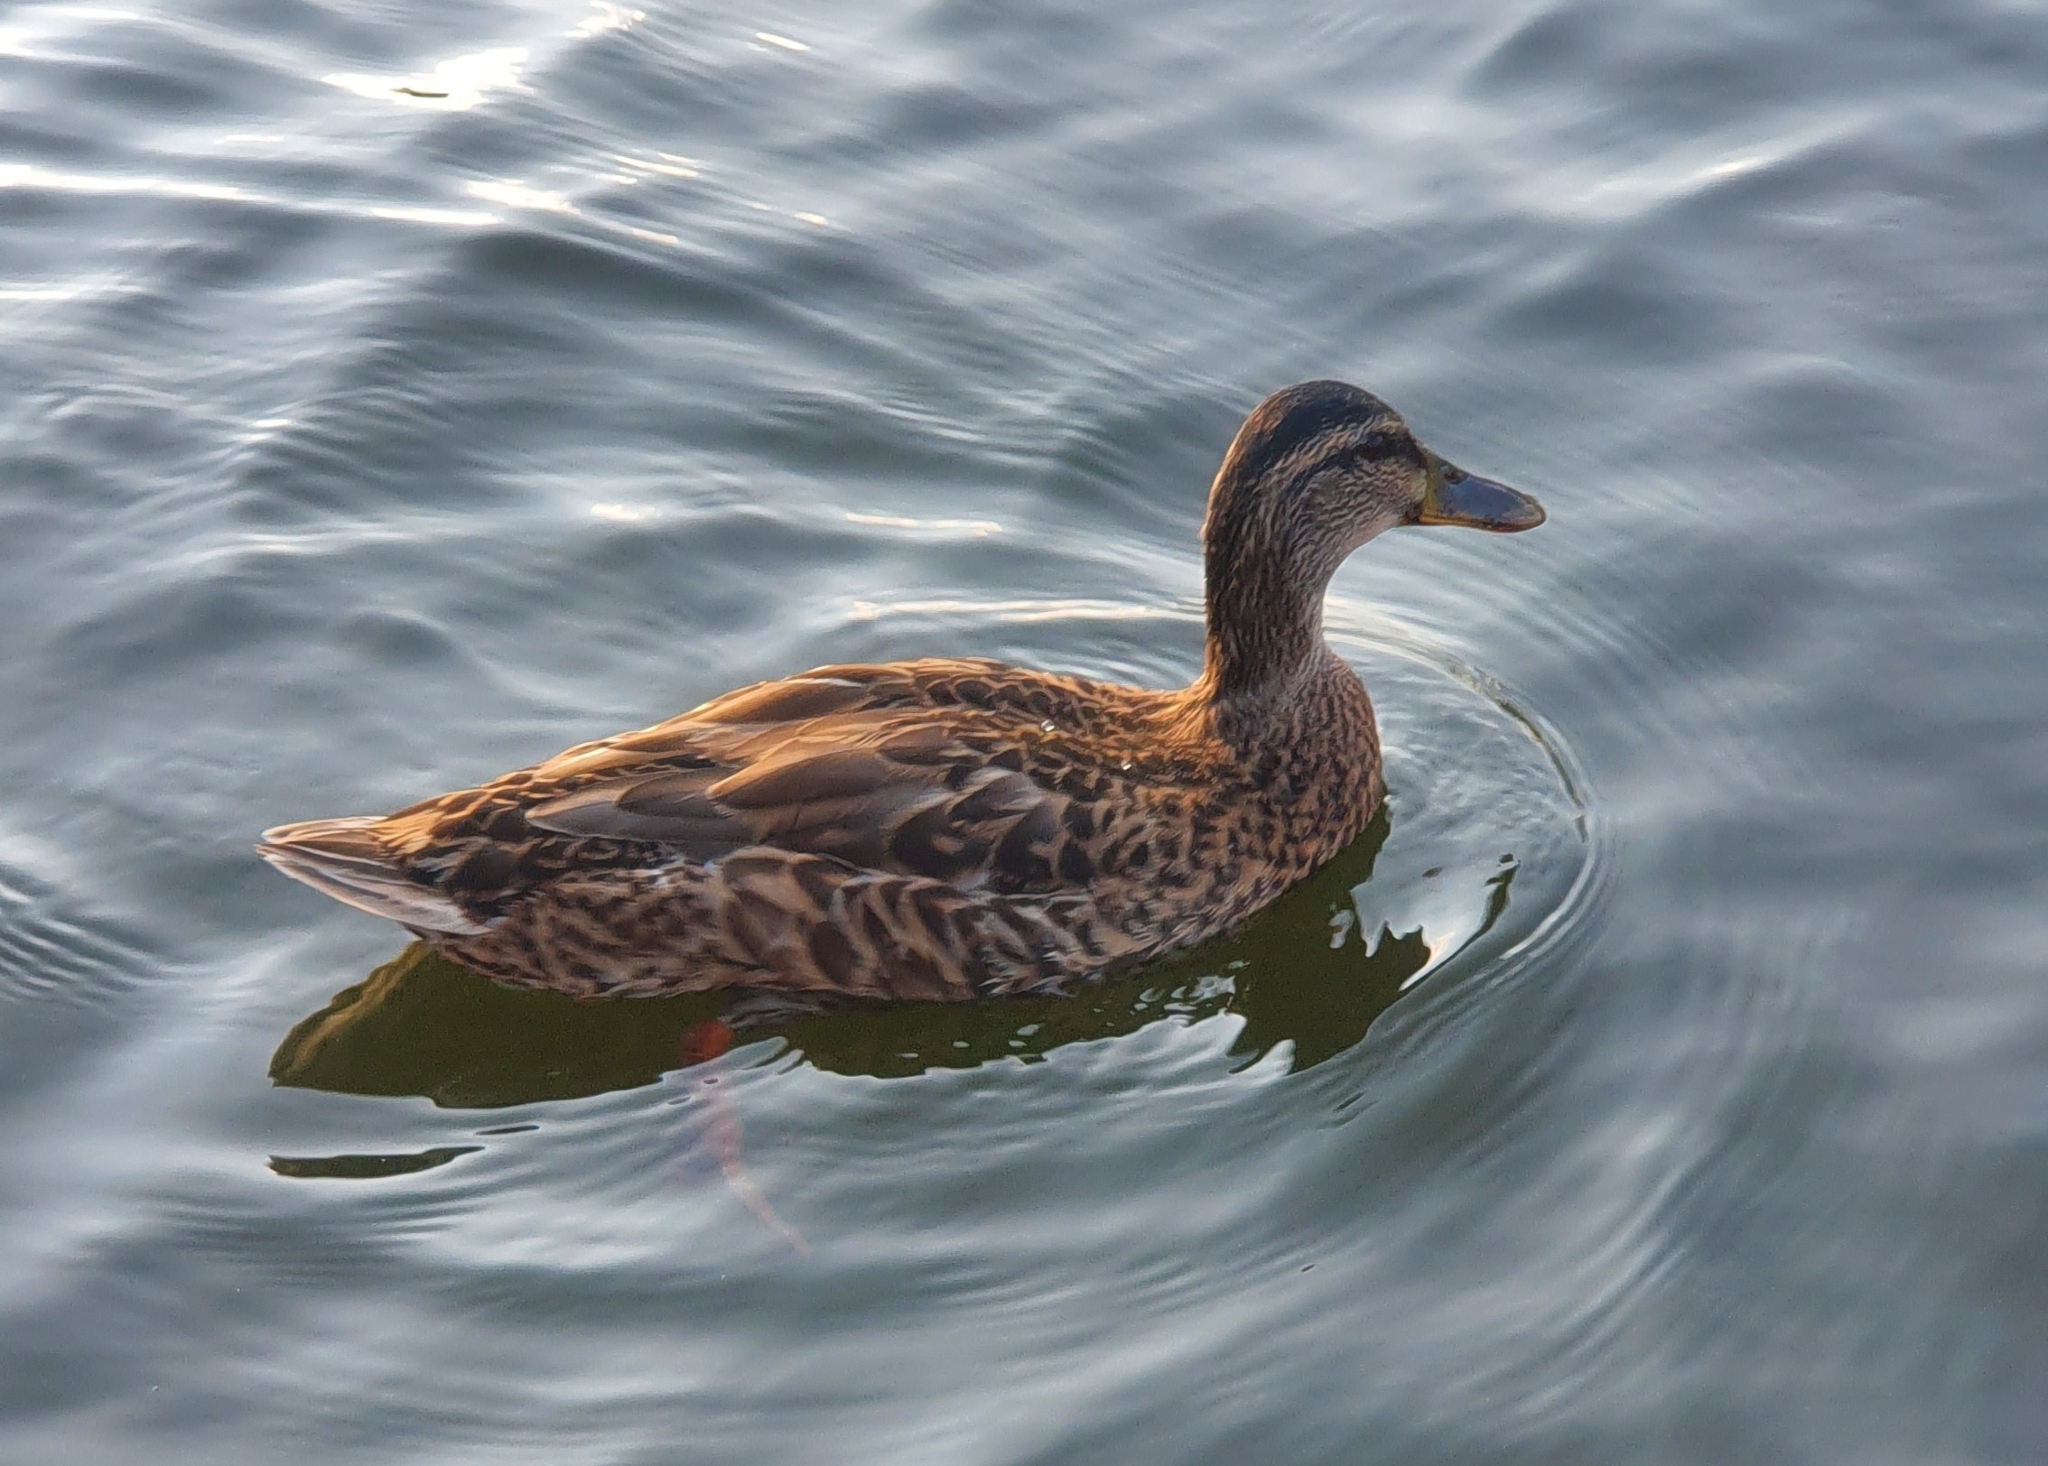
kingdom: Animalia
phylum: Chordata
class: Aves
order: Anseriformes
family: Anatidae
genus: Anas
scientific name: Anas platyrhynchos
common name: Mallard
